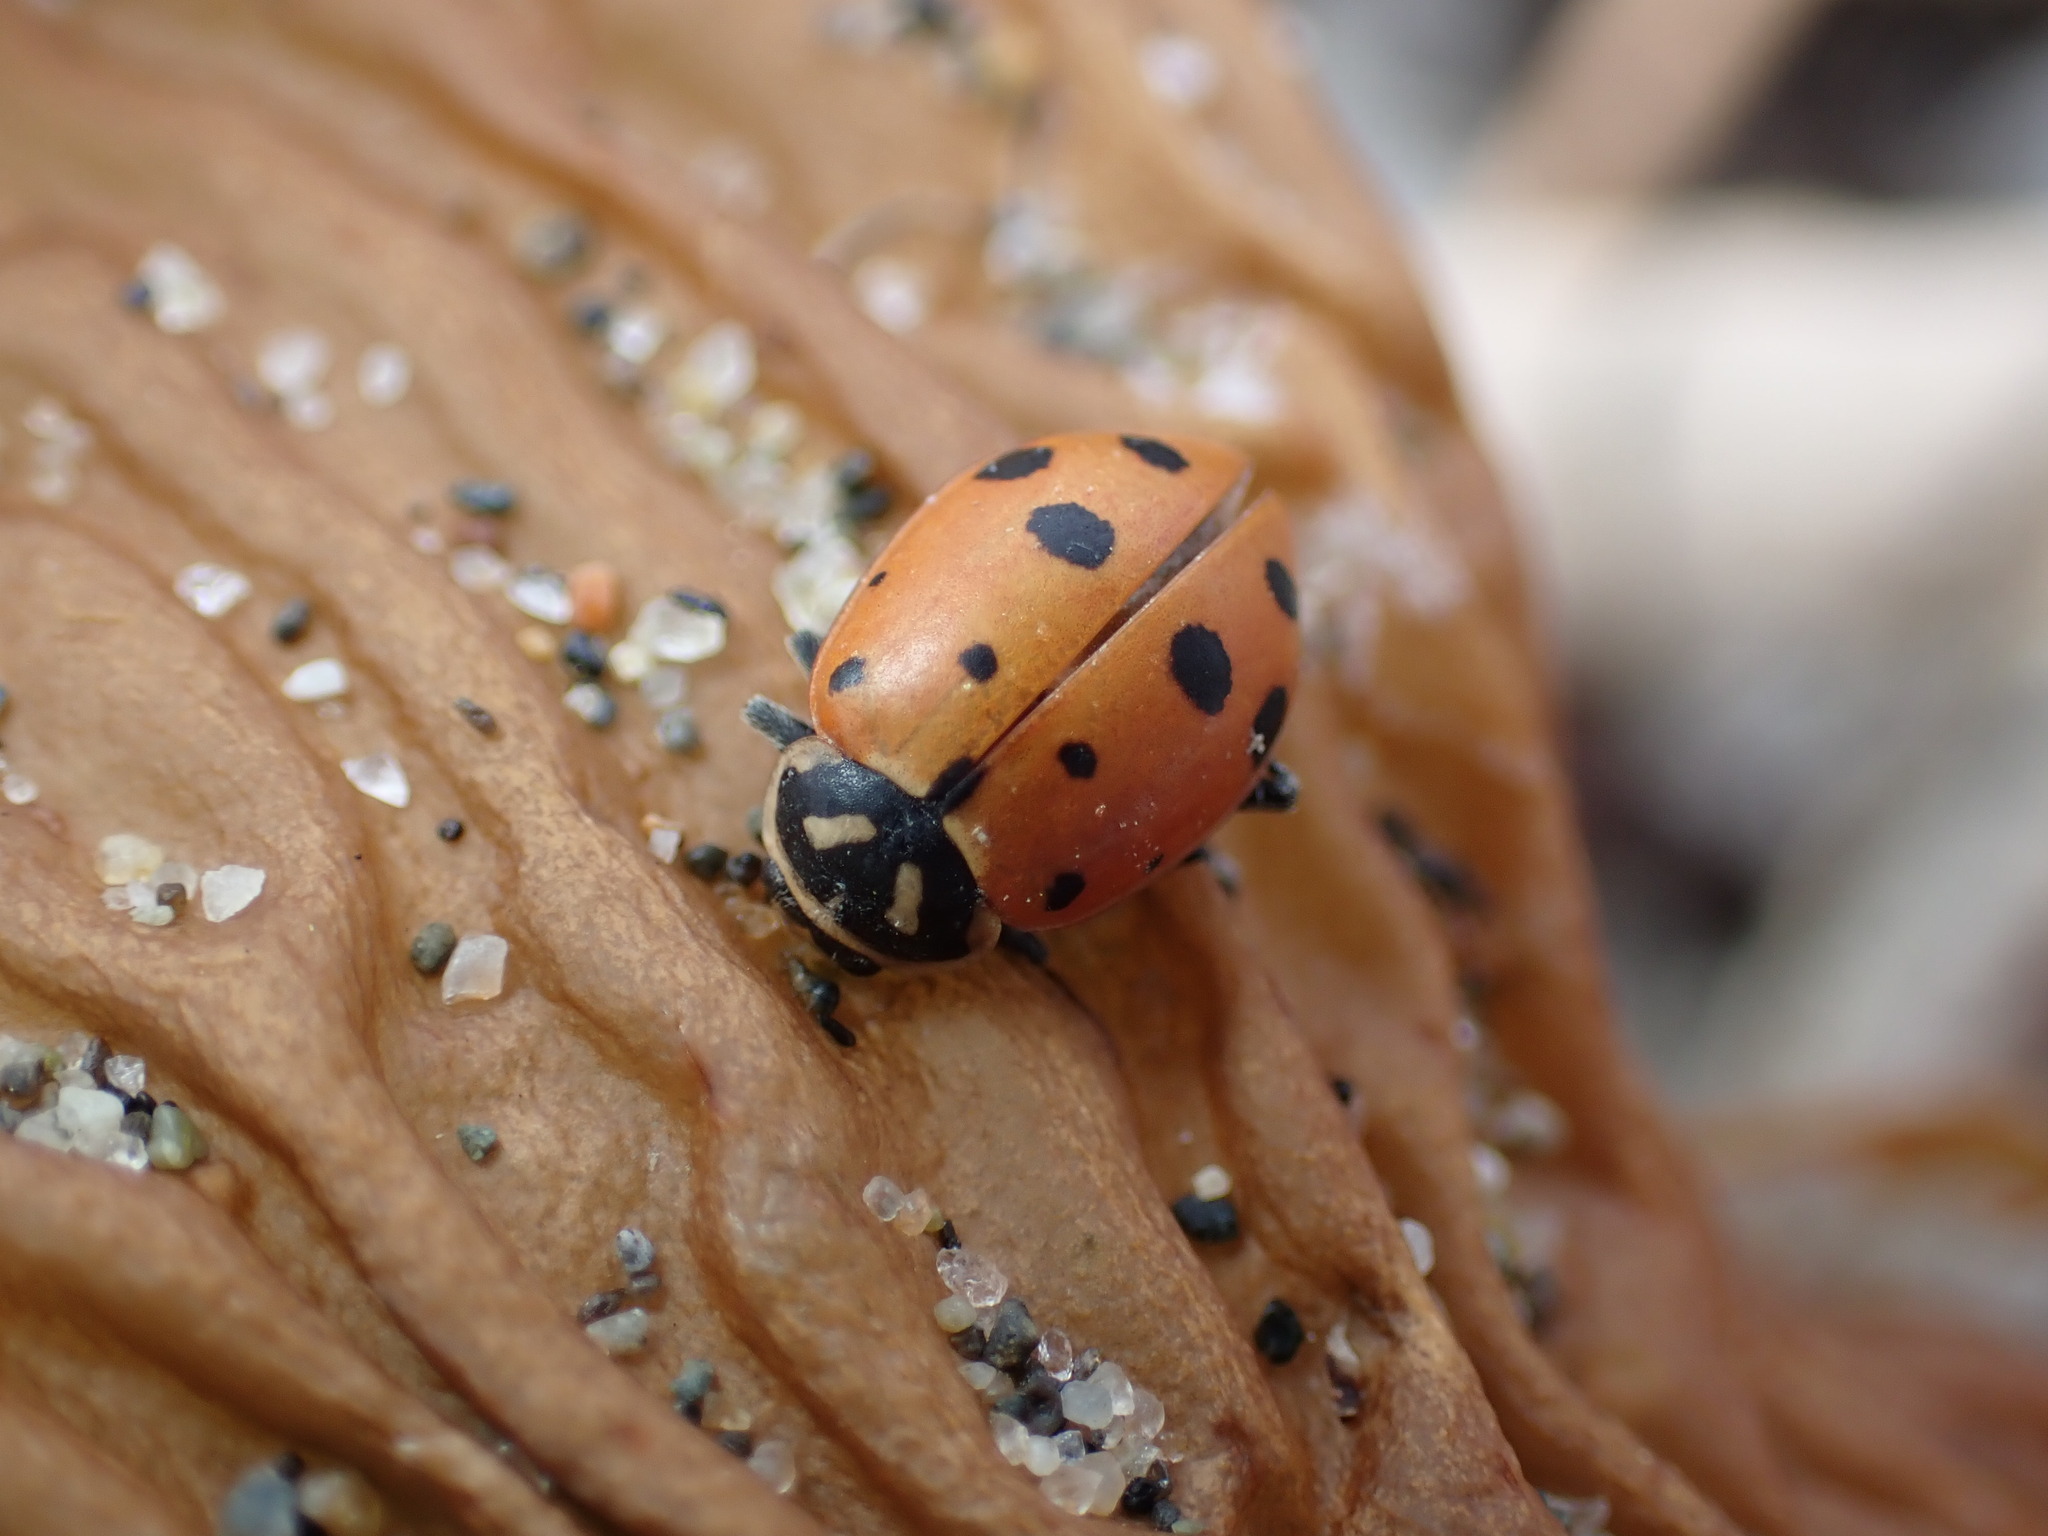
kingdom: Animalia
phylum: Arthropoda
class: Insecta
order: Coleoptera
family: Coccinellidae
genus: Hippodamia
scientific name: Hippodamia convergens
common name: Convergent lady beetle
